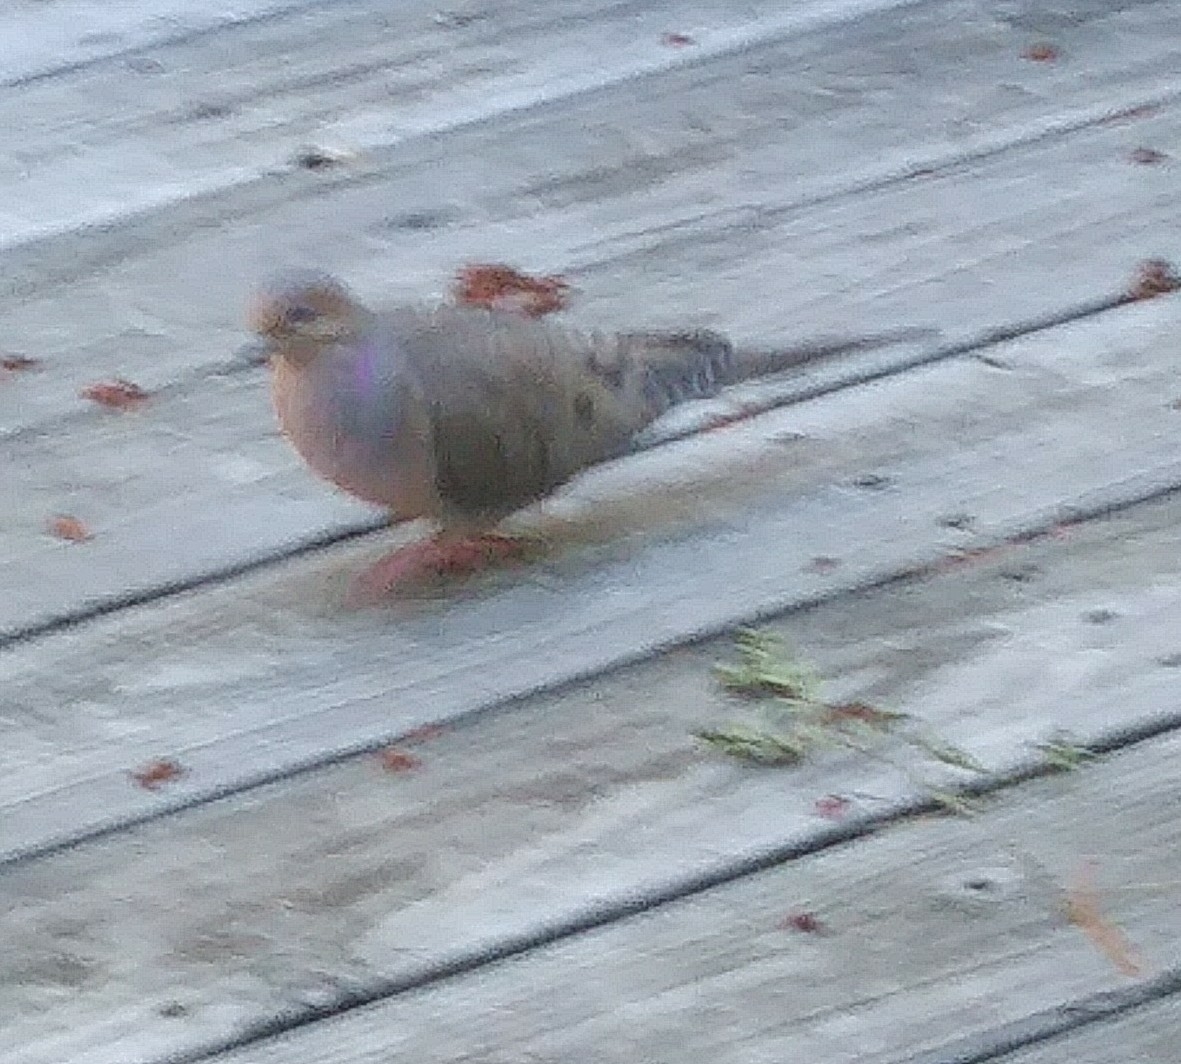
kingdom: Animalia
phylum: Chordata
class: Aves
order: Columbiformes
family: Columbidae
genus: Zenaida
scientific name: Zenaida macroura
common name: Mourning dove
